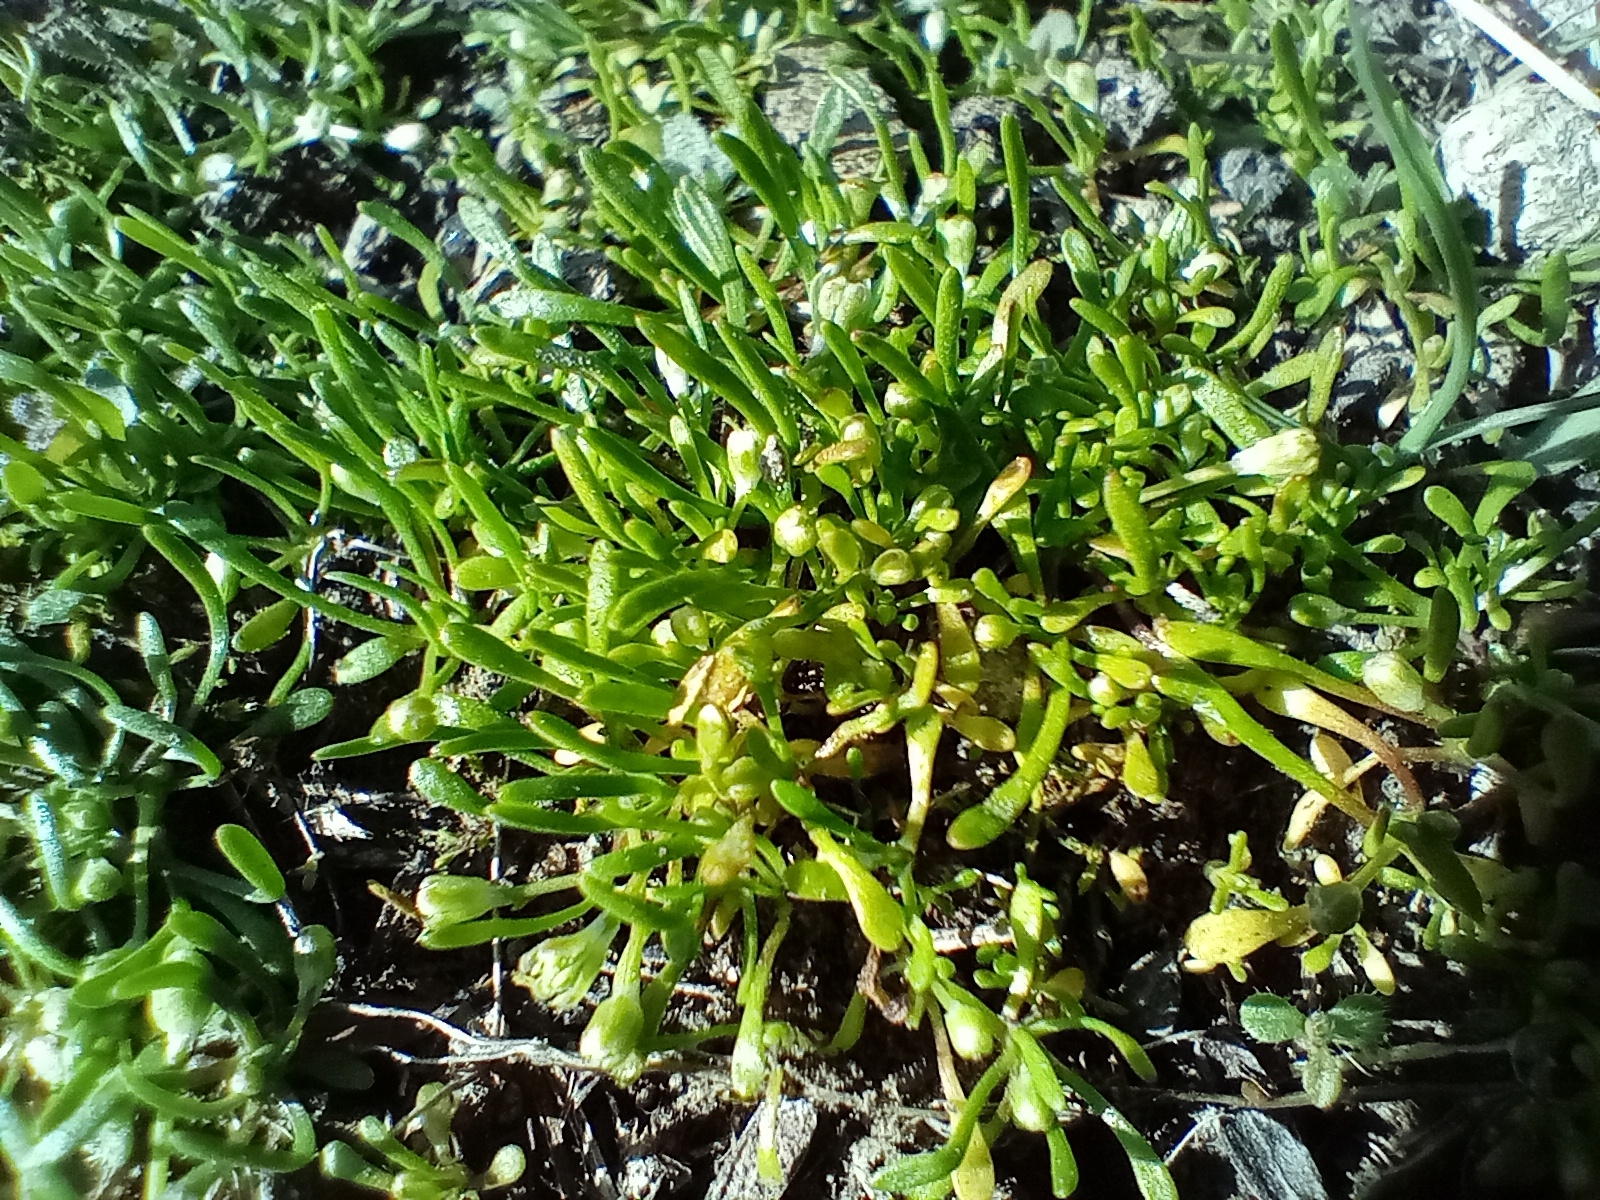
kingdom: Plantae
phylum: Tracheophyta
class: Magnoliopsida
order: Ranunculales
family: Ranunculaceae
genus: Myosurus
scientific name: Myosurus minimus
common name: Mousetail
